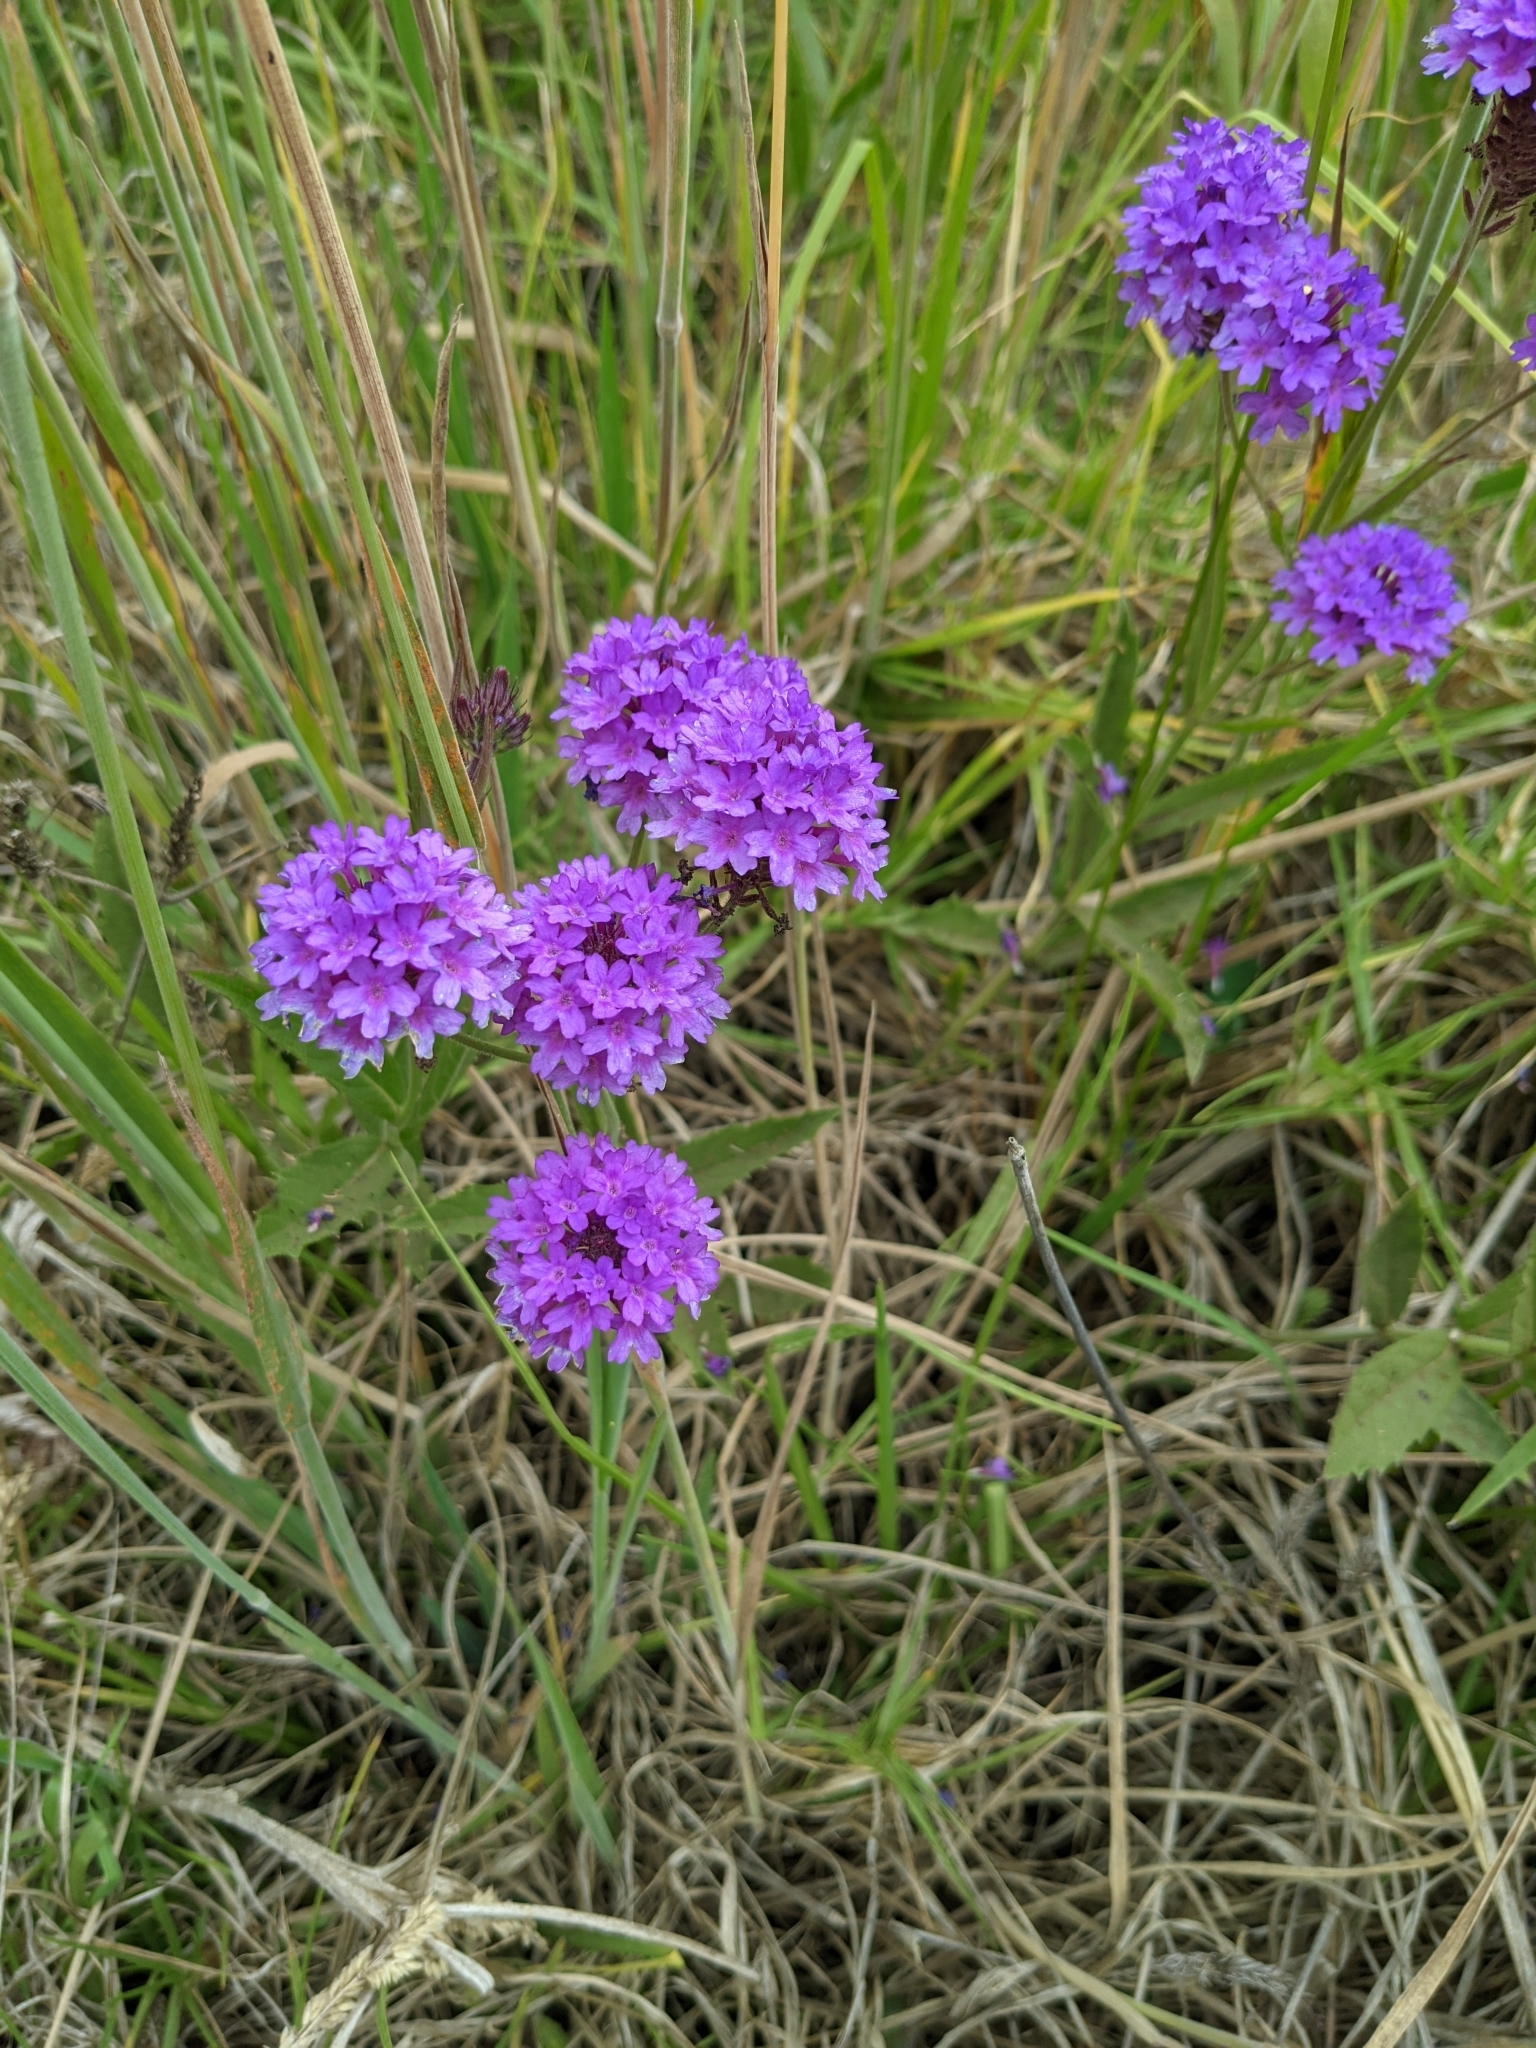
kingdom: Plantae
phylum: Tracheophyta
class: Magnoliopsida
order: Lamiales
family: Verbenaceae
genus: Verbena
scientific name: Verbena rigida
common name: Slender vervain
